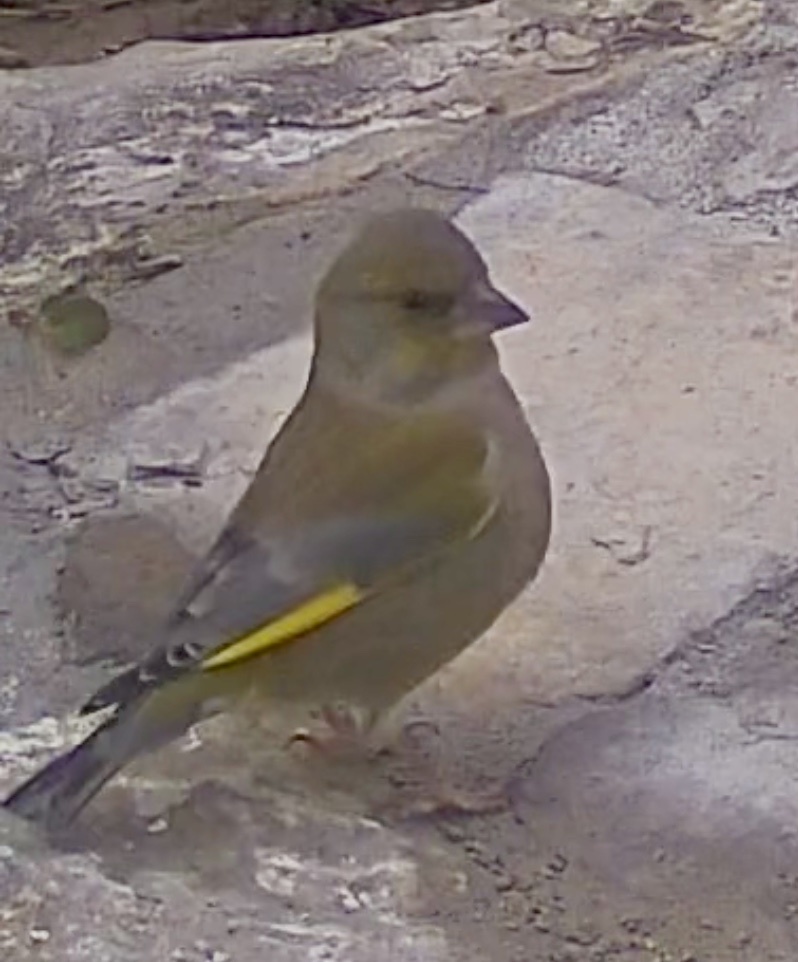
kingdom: Plantae
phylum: Tracheophyta
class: Liliopsida
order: Poales
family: Poaceae
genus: Chloris
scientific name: Chloris chloris
